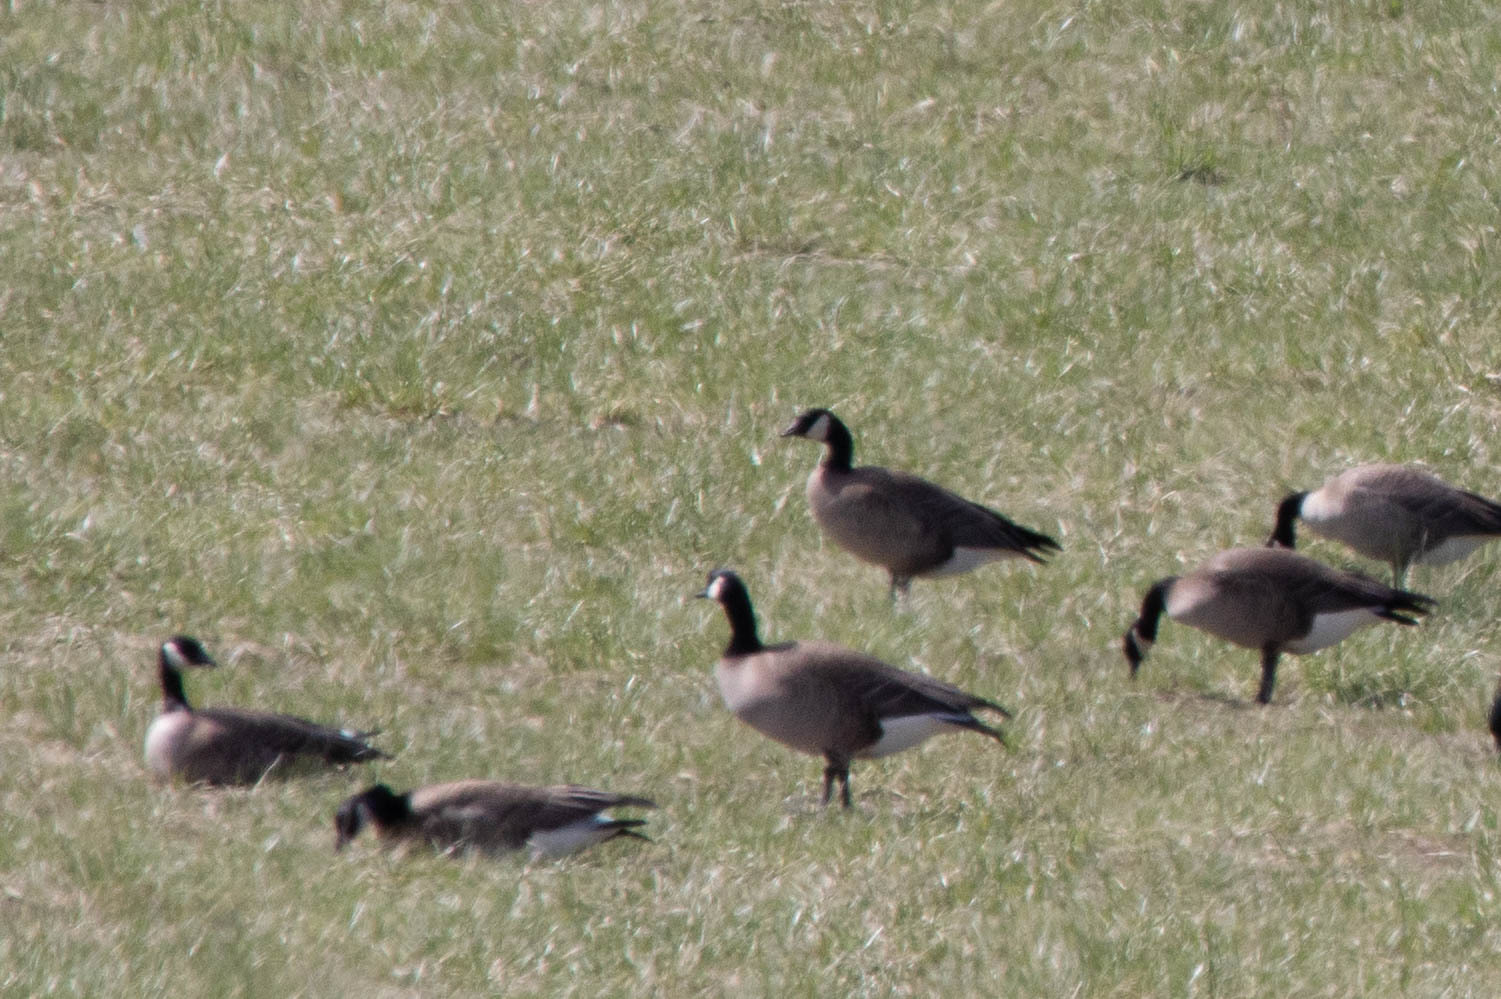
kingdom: Animalia
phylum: Chordata
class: Aves
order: Anseriformes
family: Anatidae
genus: Branta
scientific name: Branta hutchinsii
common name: Cackling goose
